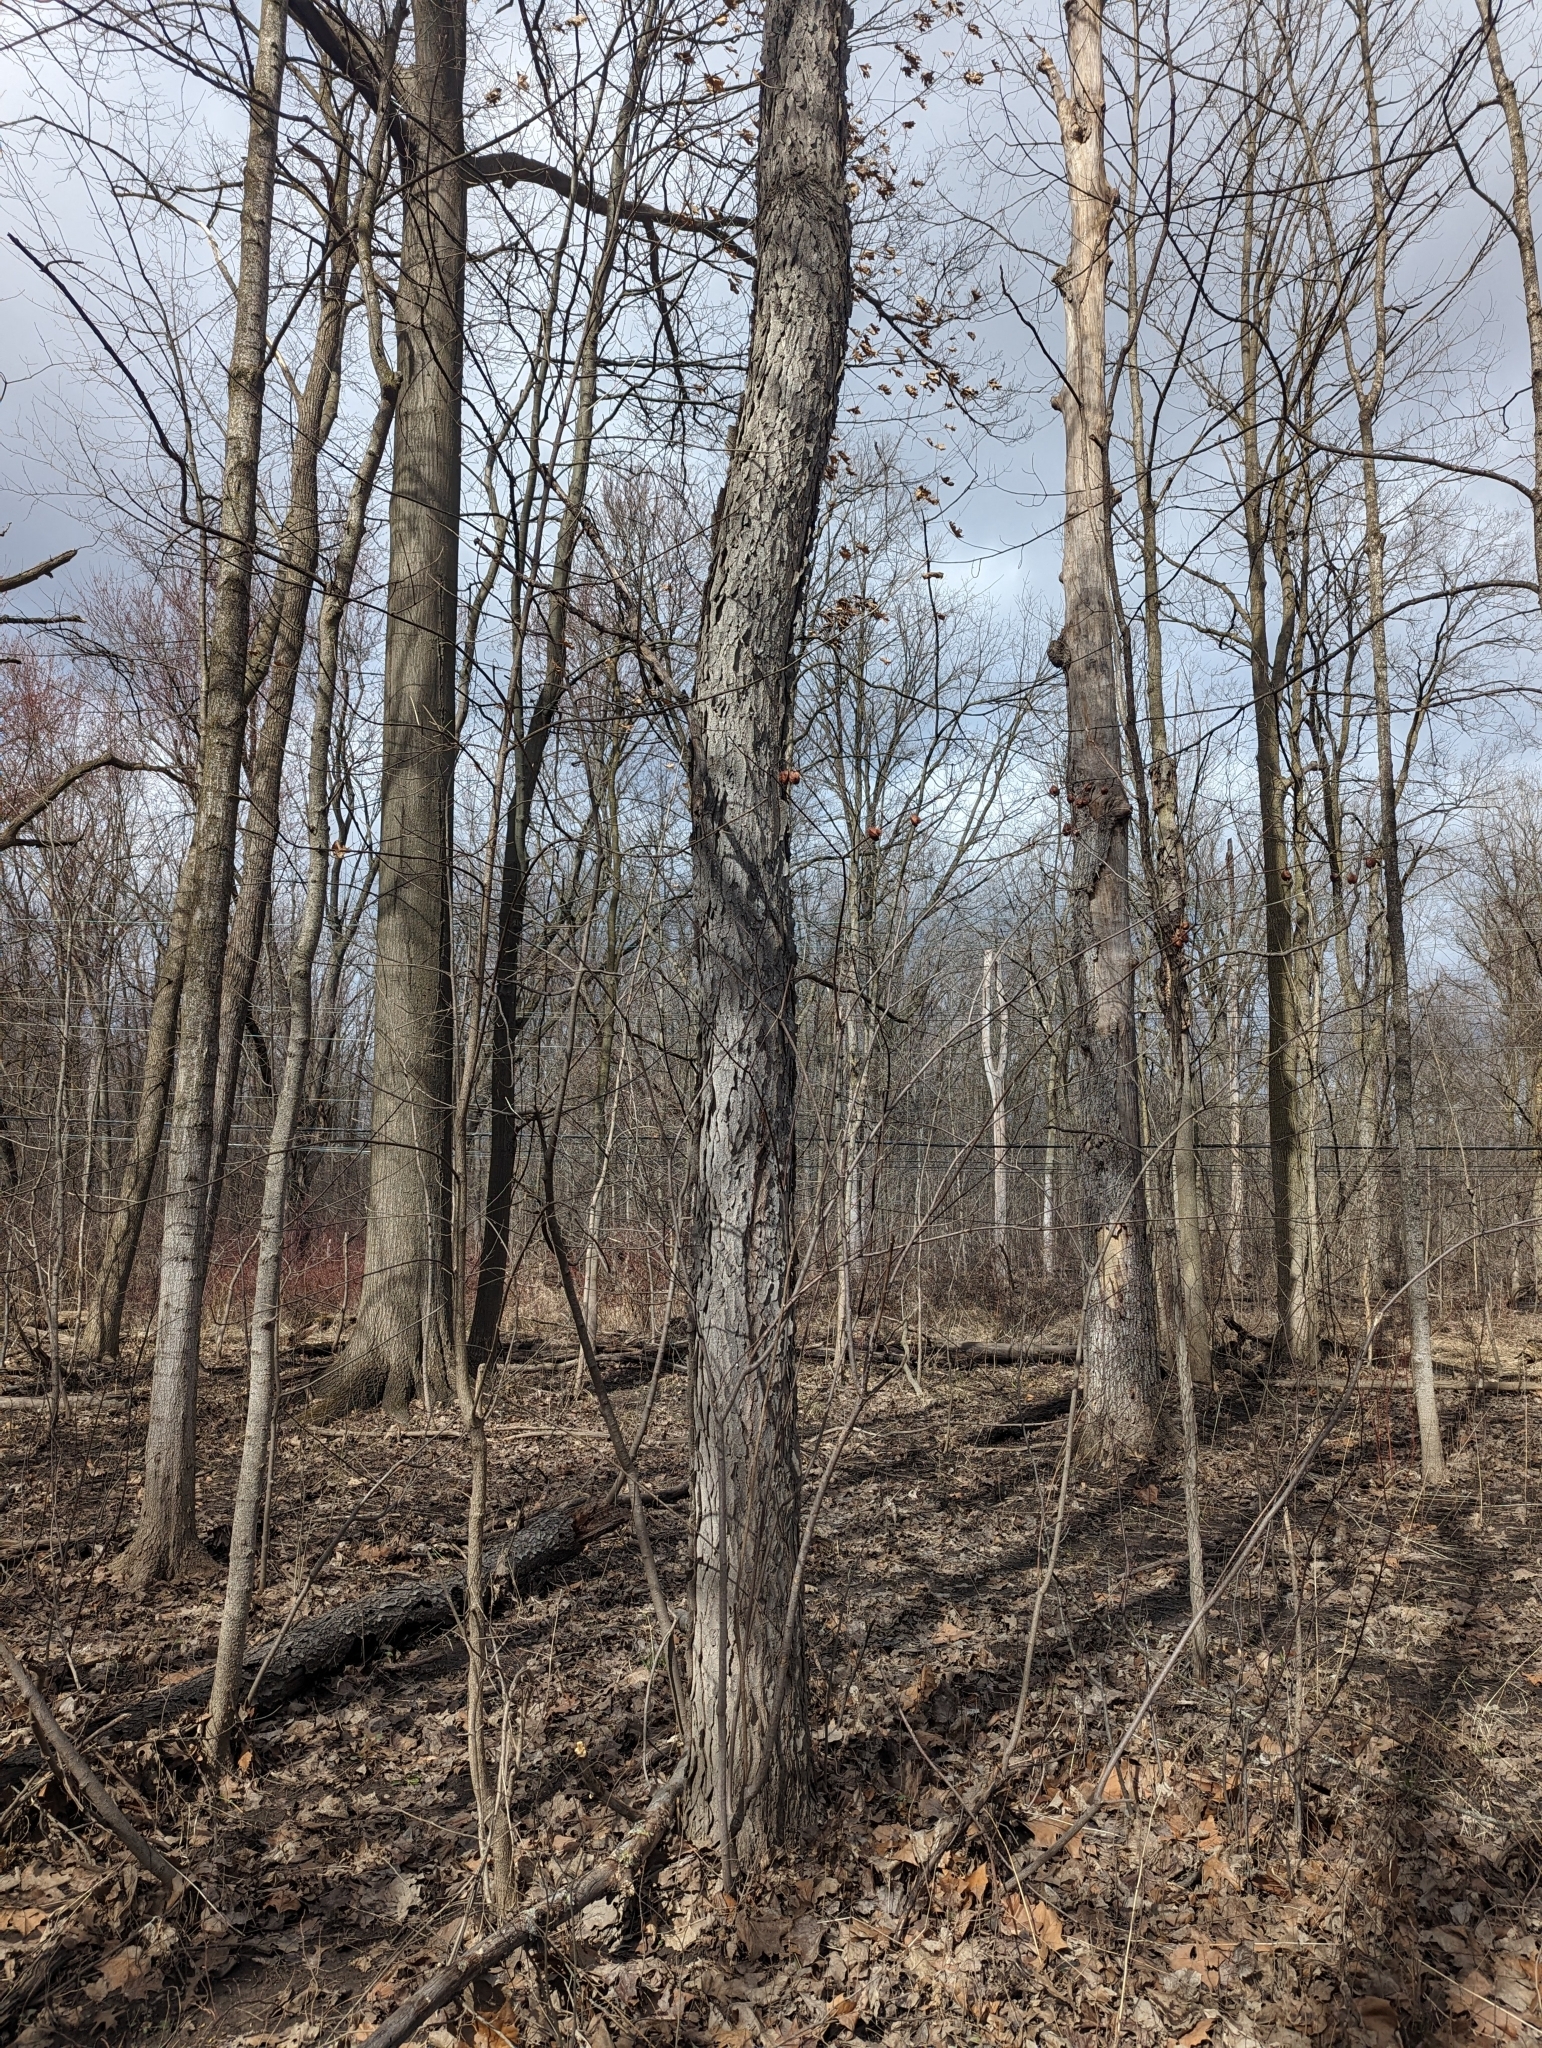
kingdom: Plantae
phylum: Tracheophyta
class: Magnoliopsida
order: Fabales
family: Fabaceae
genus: Gymnocladus
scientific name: Gymnocladus dioicus
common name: Kentucky coffee-tree
